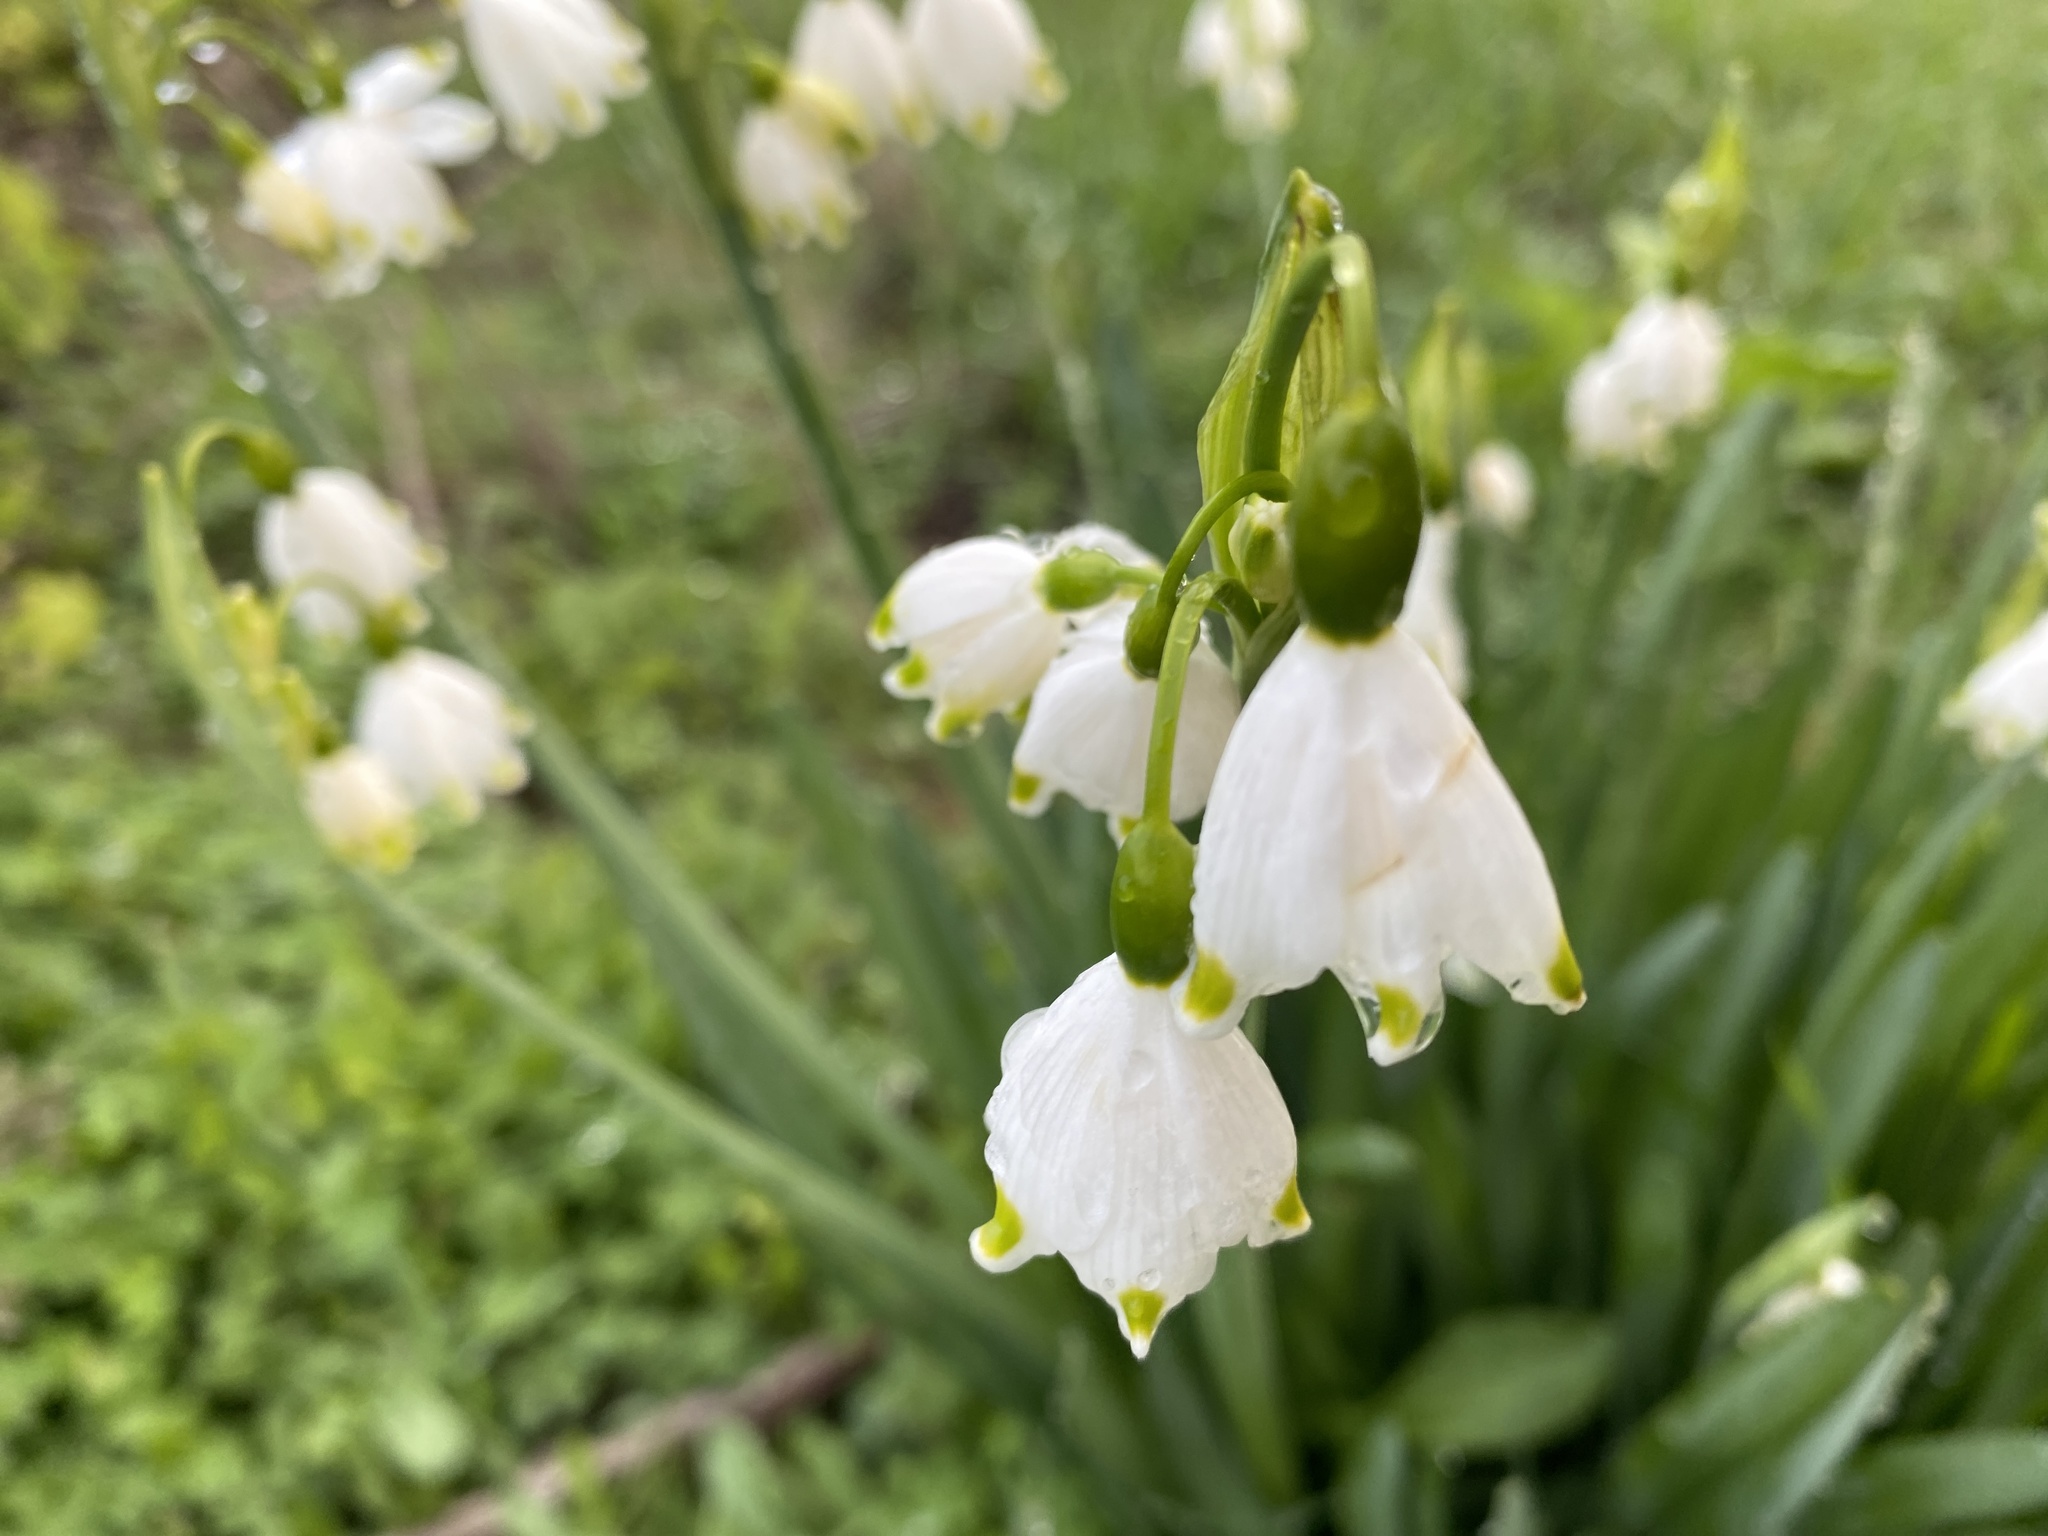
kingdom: Plantae
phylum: Tracheophyta
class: Liliopsida
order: Asparagales
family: Amaryllidaceae
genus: Leucojum
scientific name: Leucojum aestivum
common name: Summer snowflake
